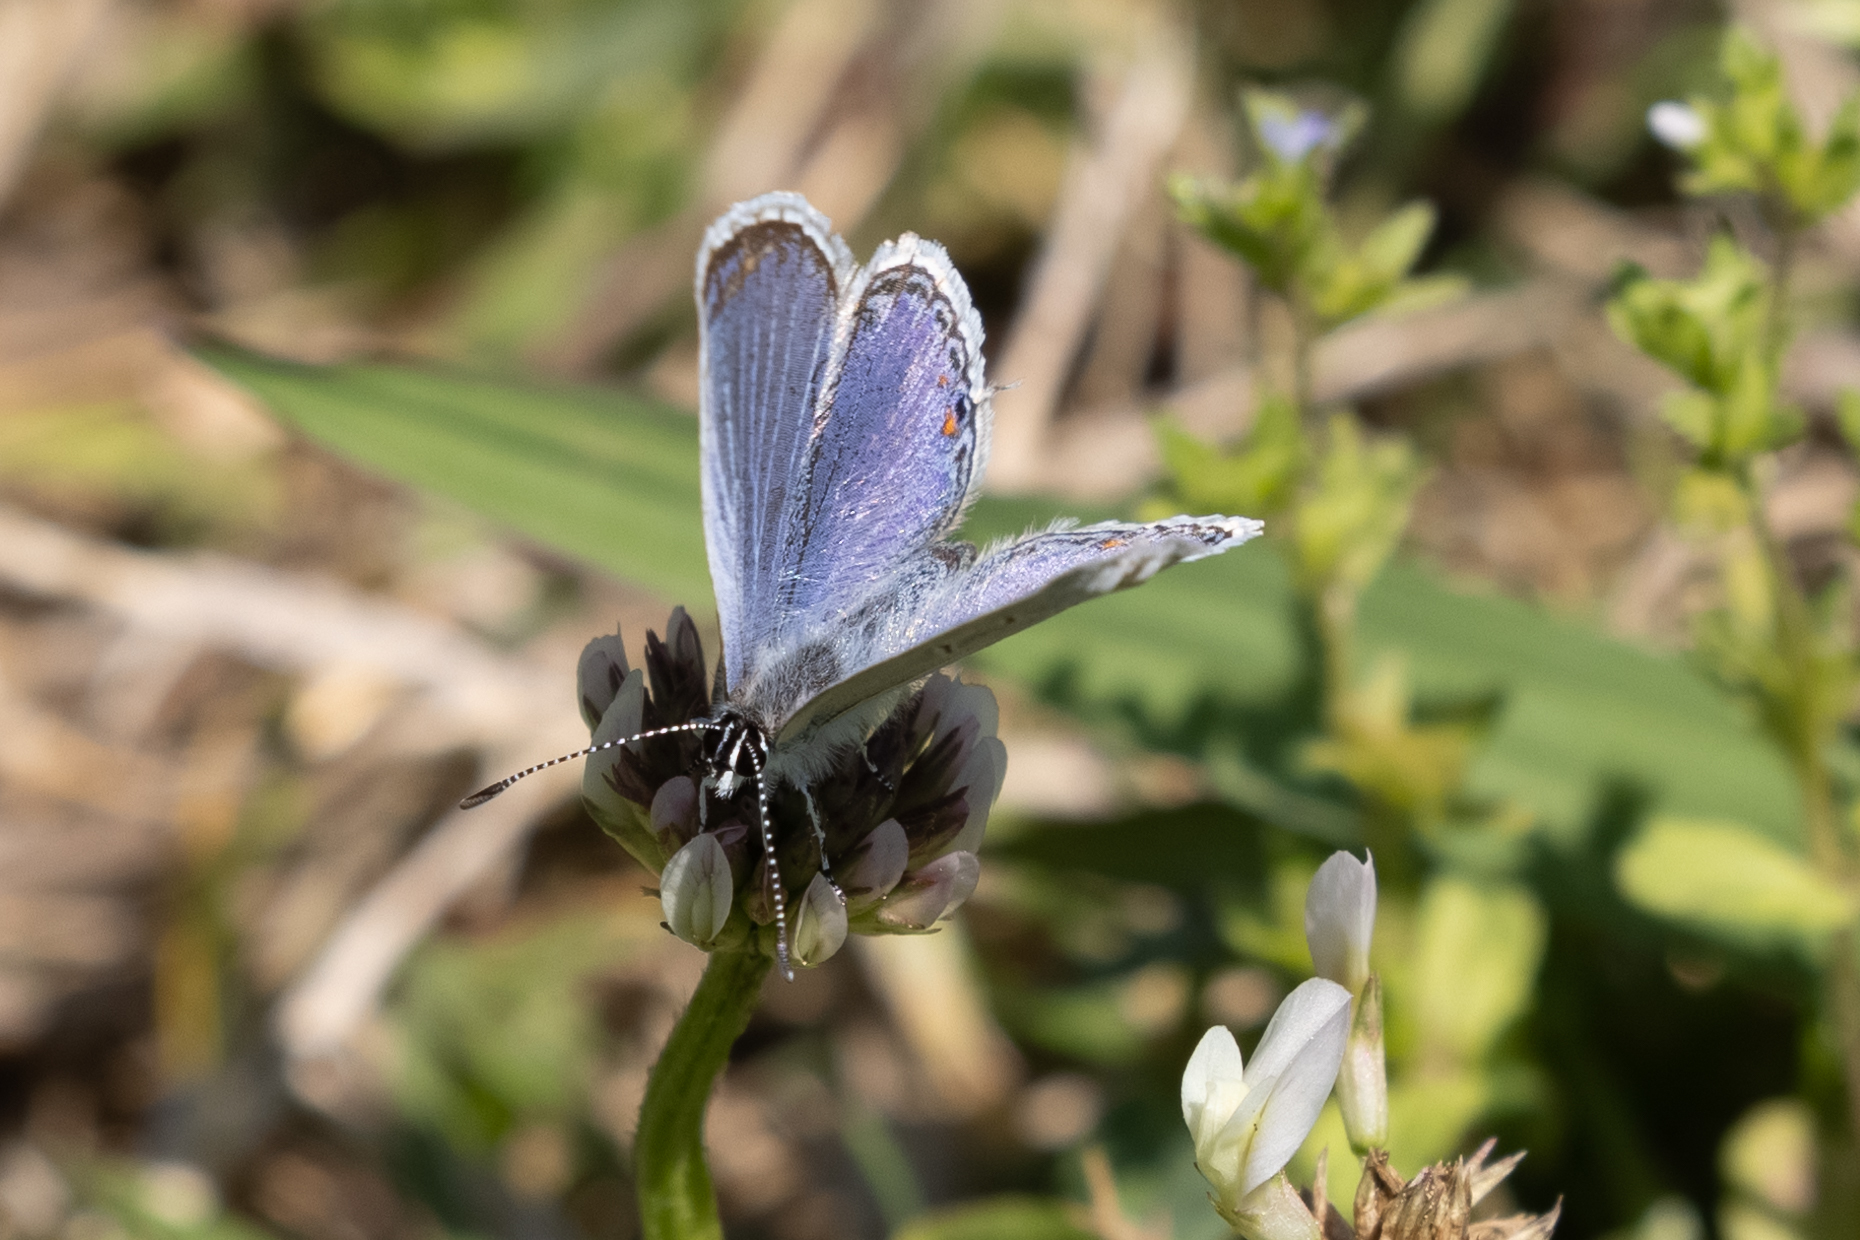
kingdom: Animalia
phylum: Arthropoda
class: Insecta
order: Lepidoptera
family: Lycaenidae
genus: Elkalyce
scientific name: Elkalyce comyntas
